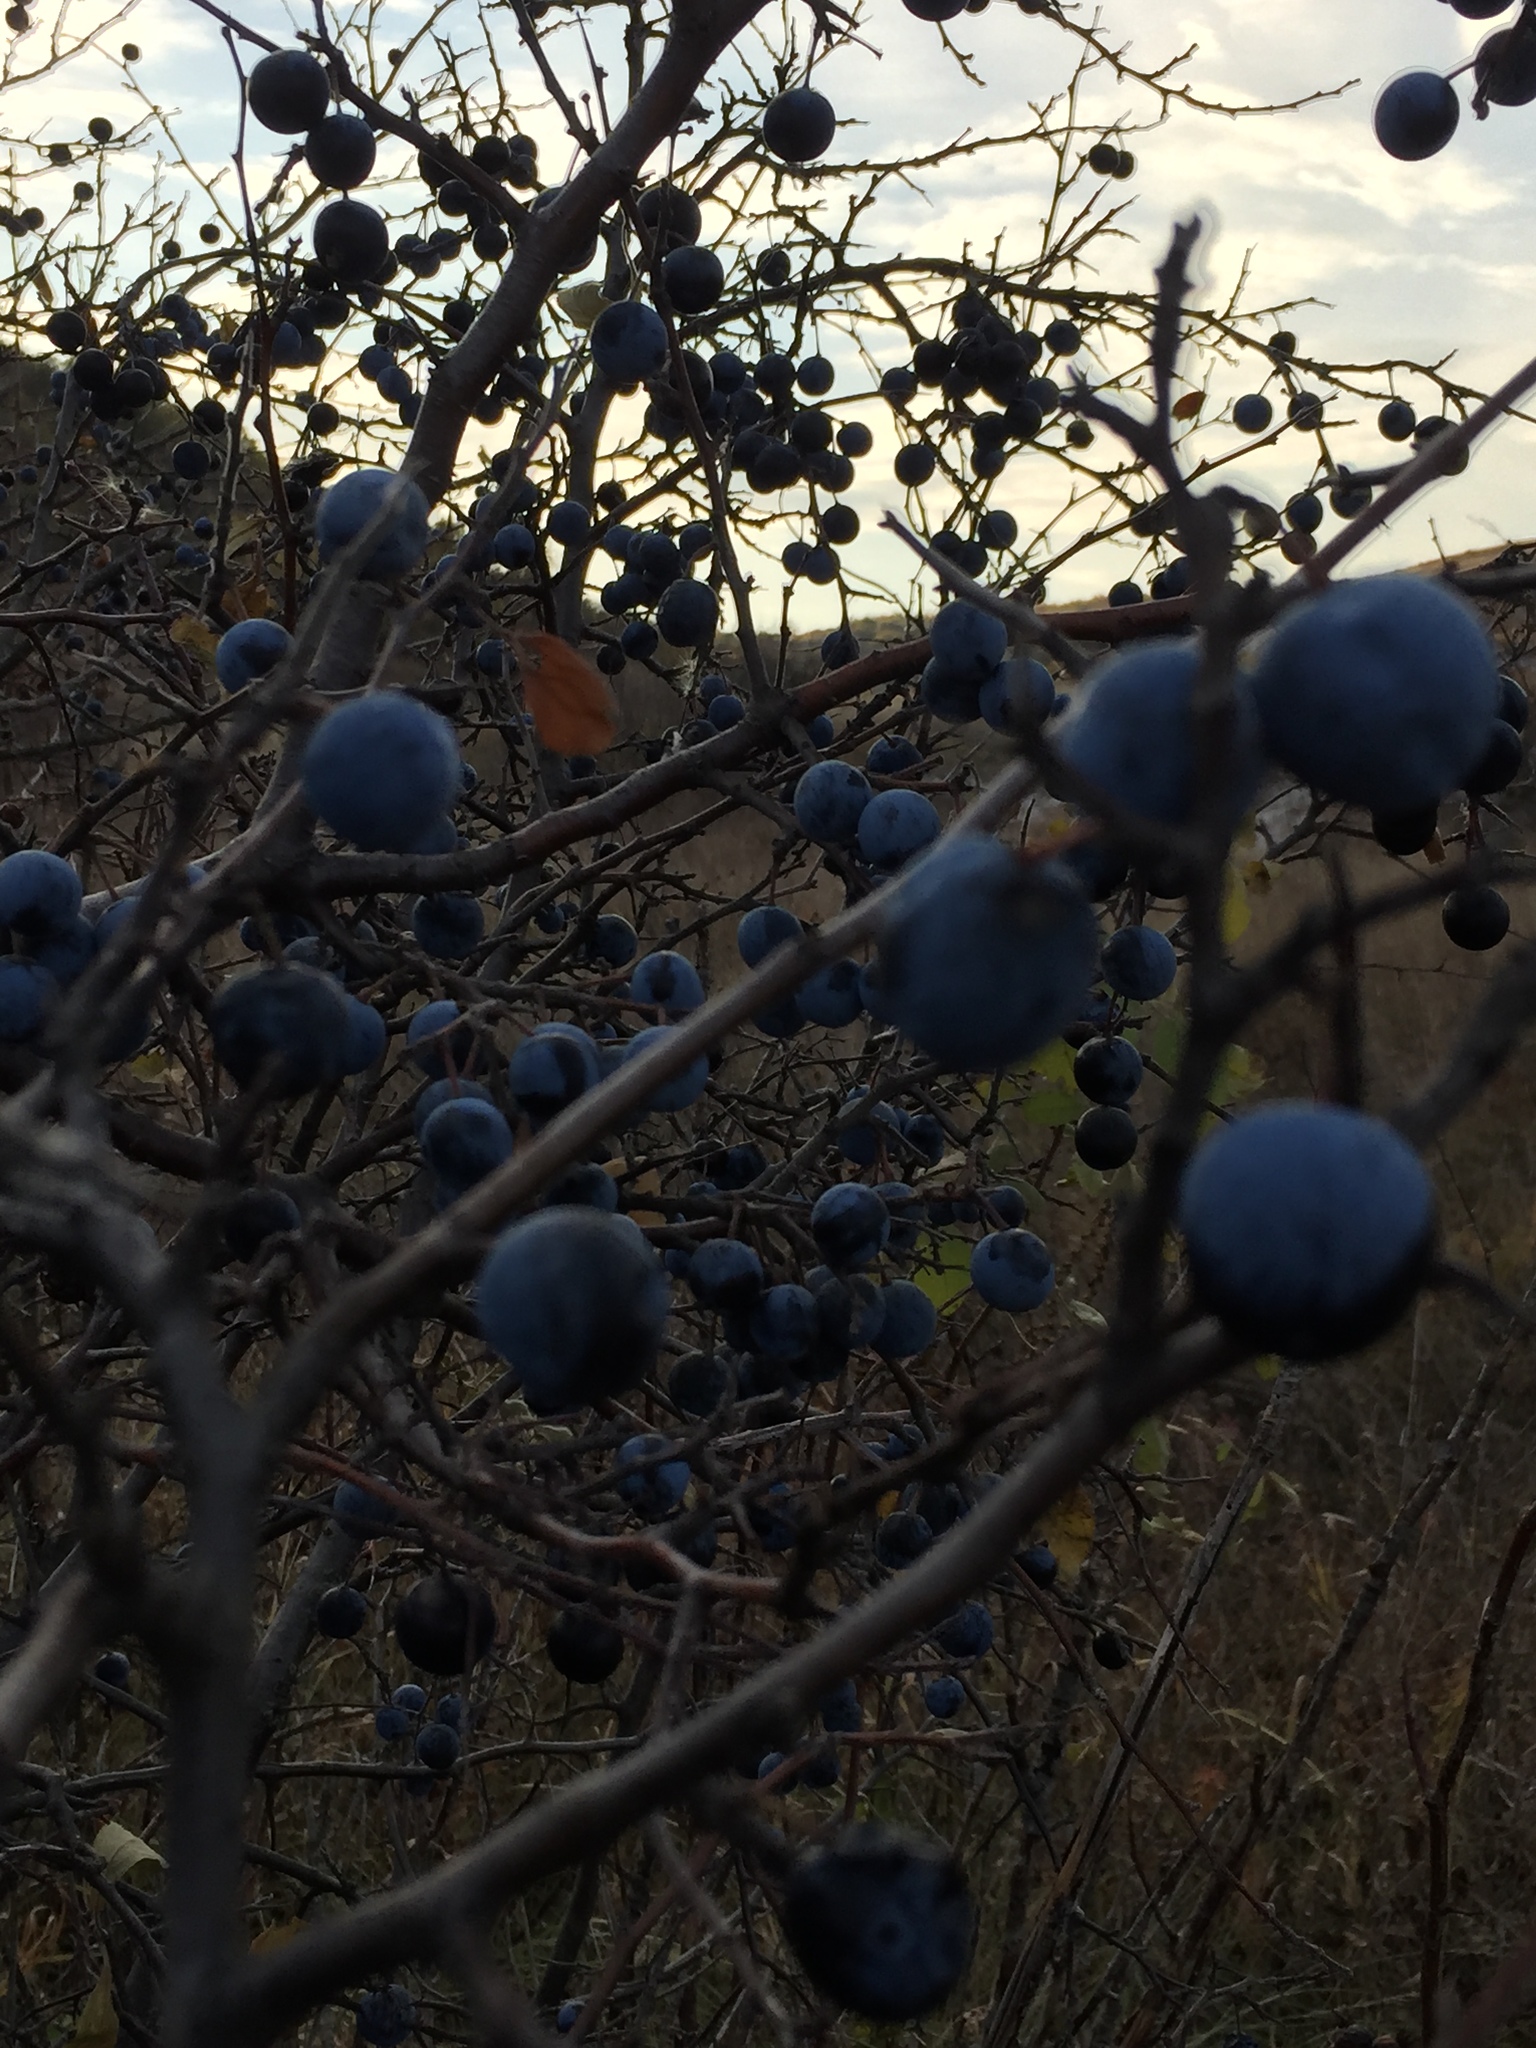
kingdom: Plantae
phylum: Tracheophyta
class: Magnoliopsida
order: Rosales
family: Rosaceae
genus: Prunus
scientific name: Prunus spinosa
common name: Blackthorn
